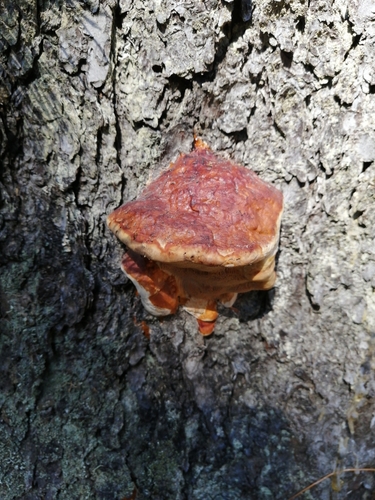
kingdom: Fungi
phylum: Basidiomycota
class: Agaricomycetes
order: Polyporales
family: Fomitopsidaceae
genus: Fomitopsis
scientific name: Fomitopsis pinicola
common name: Red-belted bracket
